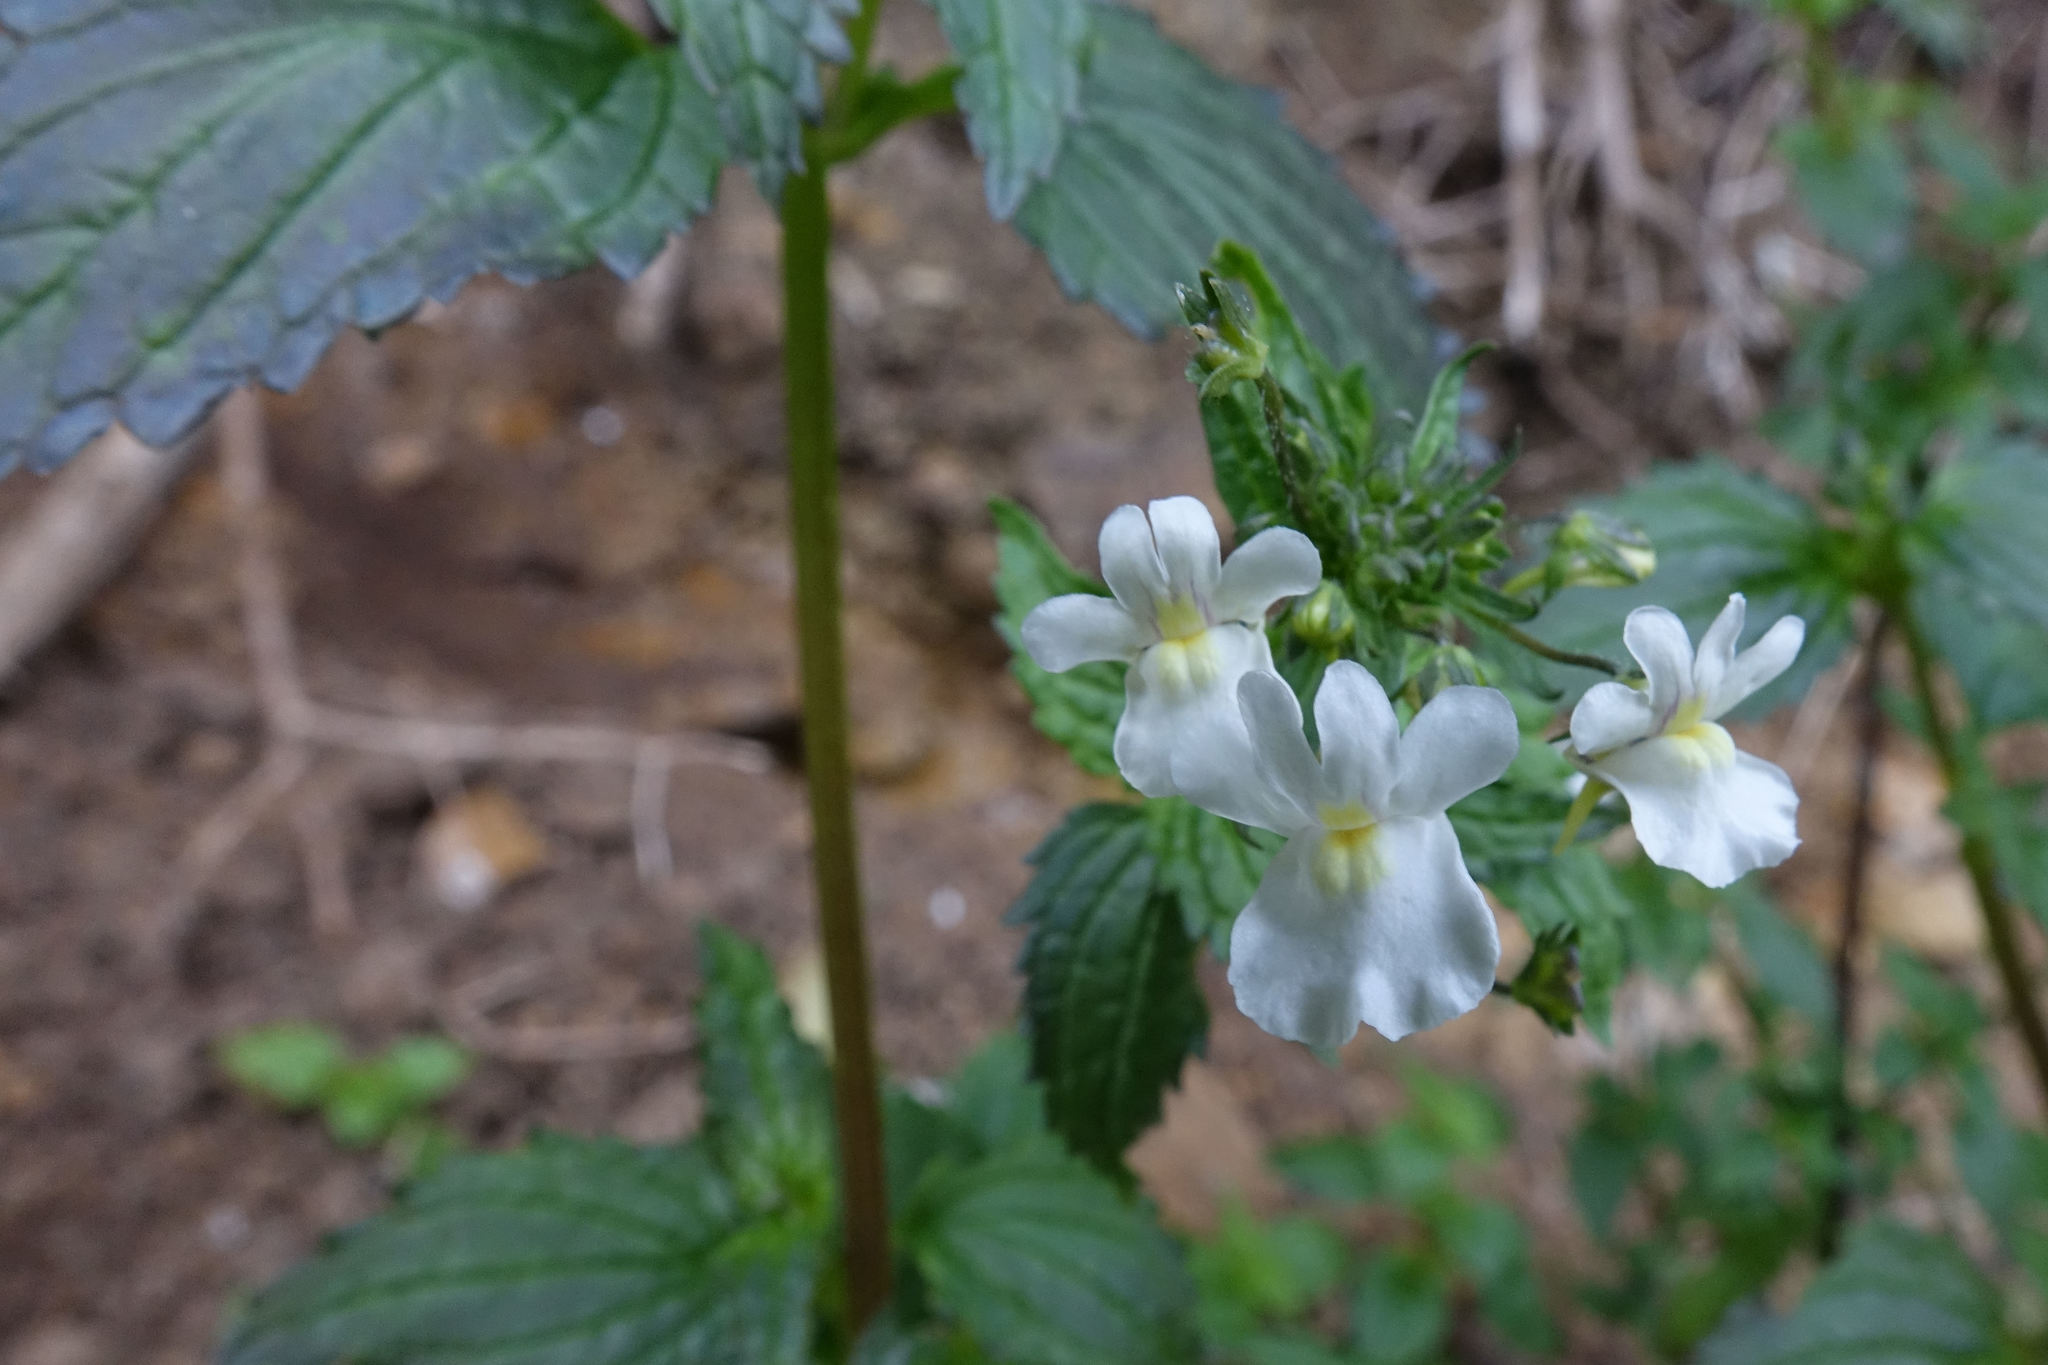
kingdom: Plantae
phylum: Tracheophyta
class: Magnoliopsida
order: Lamiales
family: Scrophulariaceae
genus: Nemesia
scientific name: Nemesia floribunda
